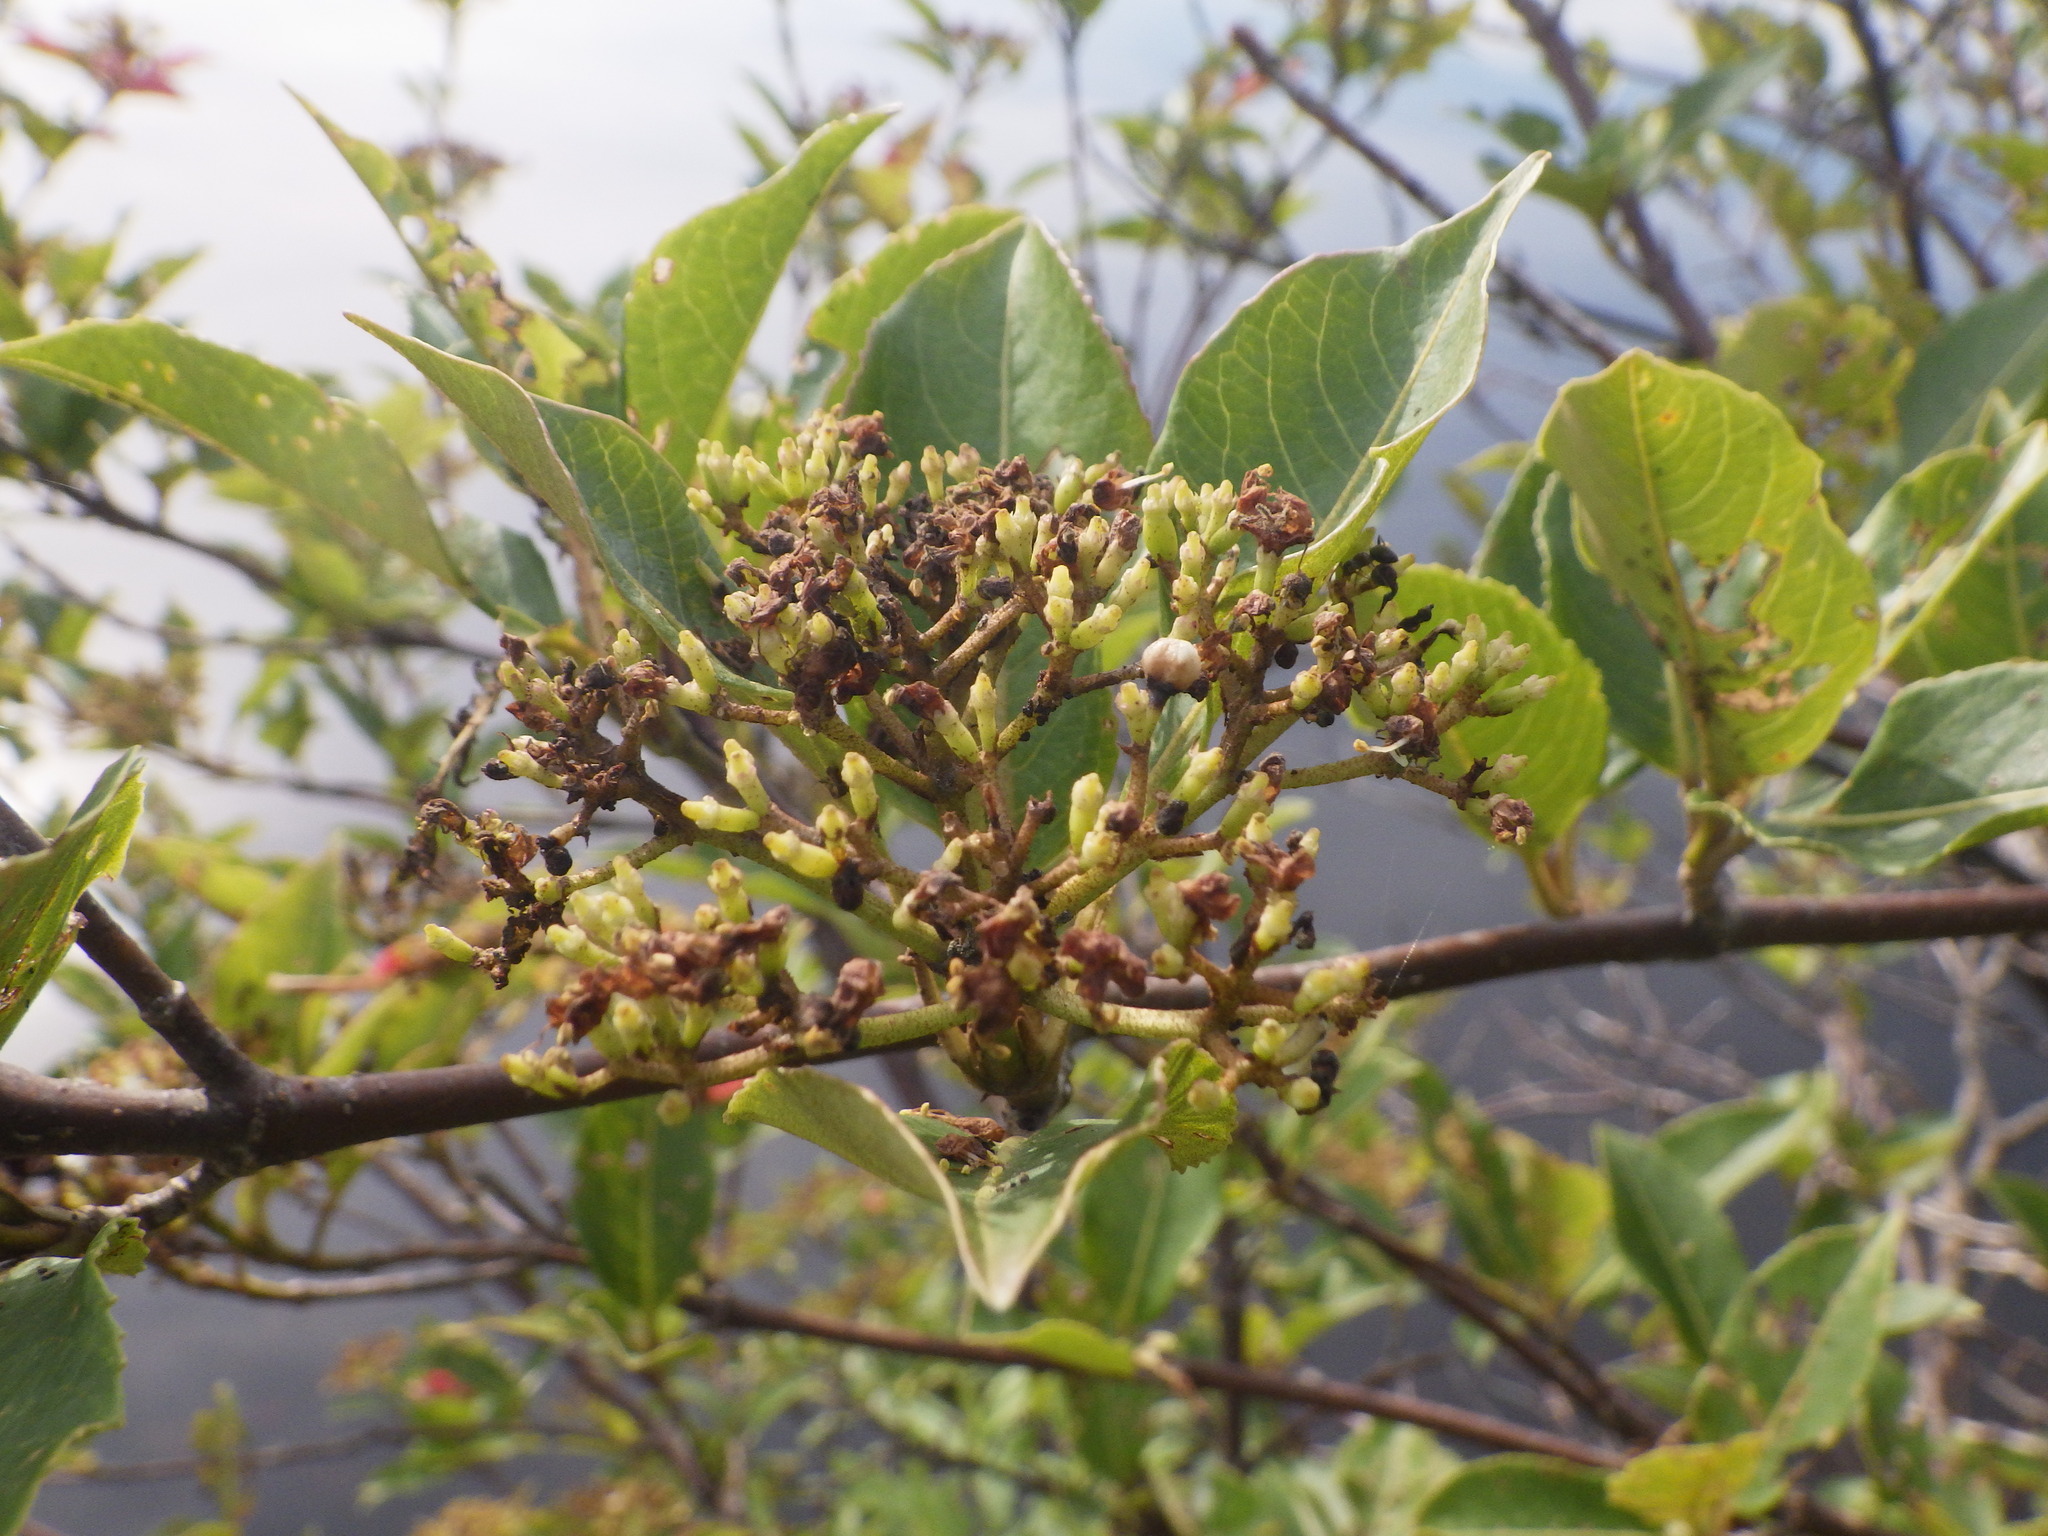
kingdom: Plantae
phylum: Tracheophyta
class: Magnoliopsida
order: Dipsacales
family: Viburnaceae
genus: Viburnum
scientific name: Viburnum cassinoides
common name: Swamp haw
